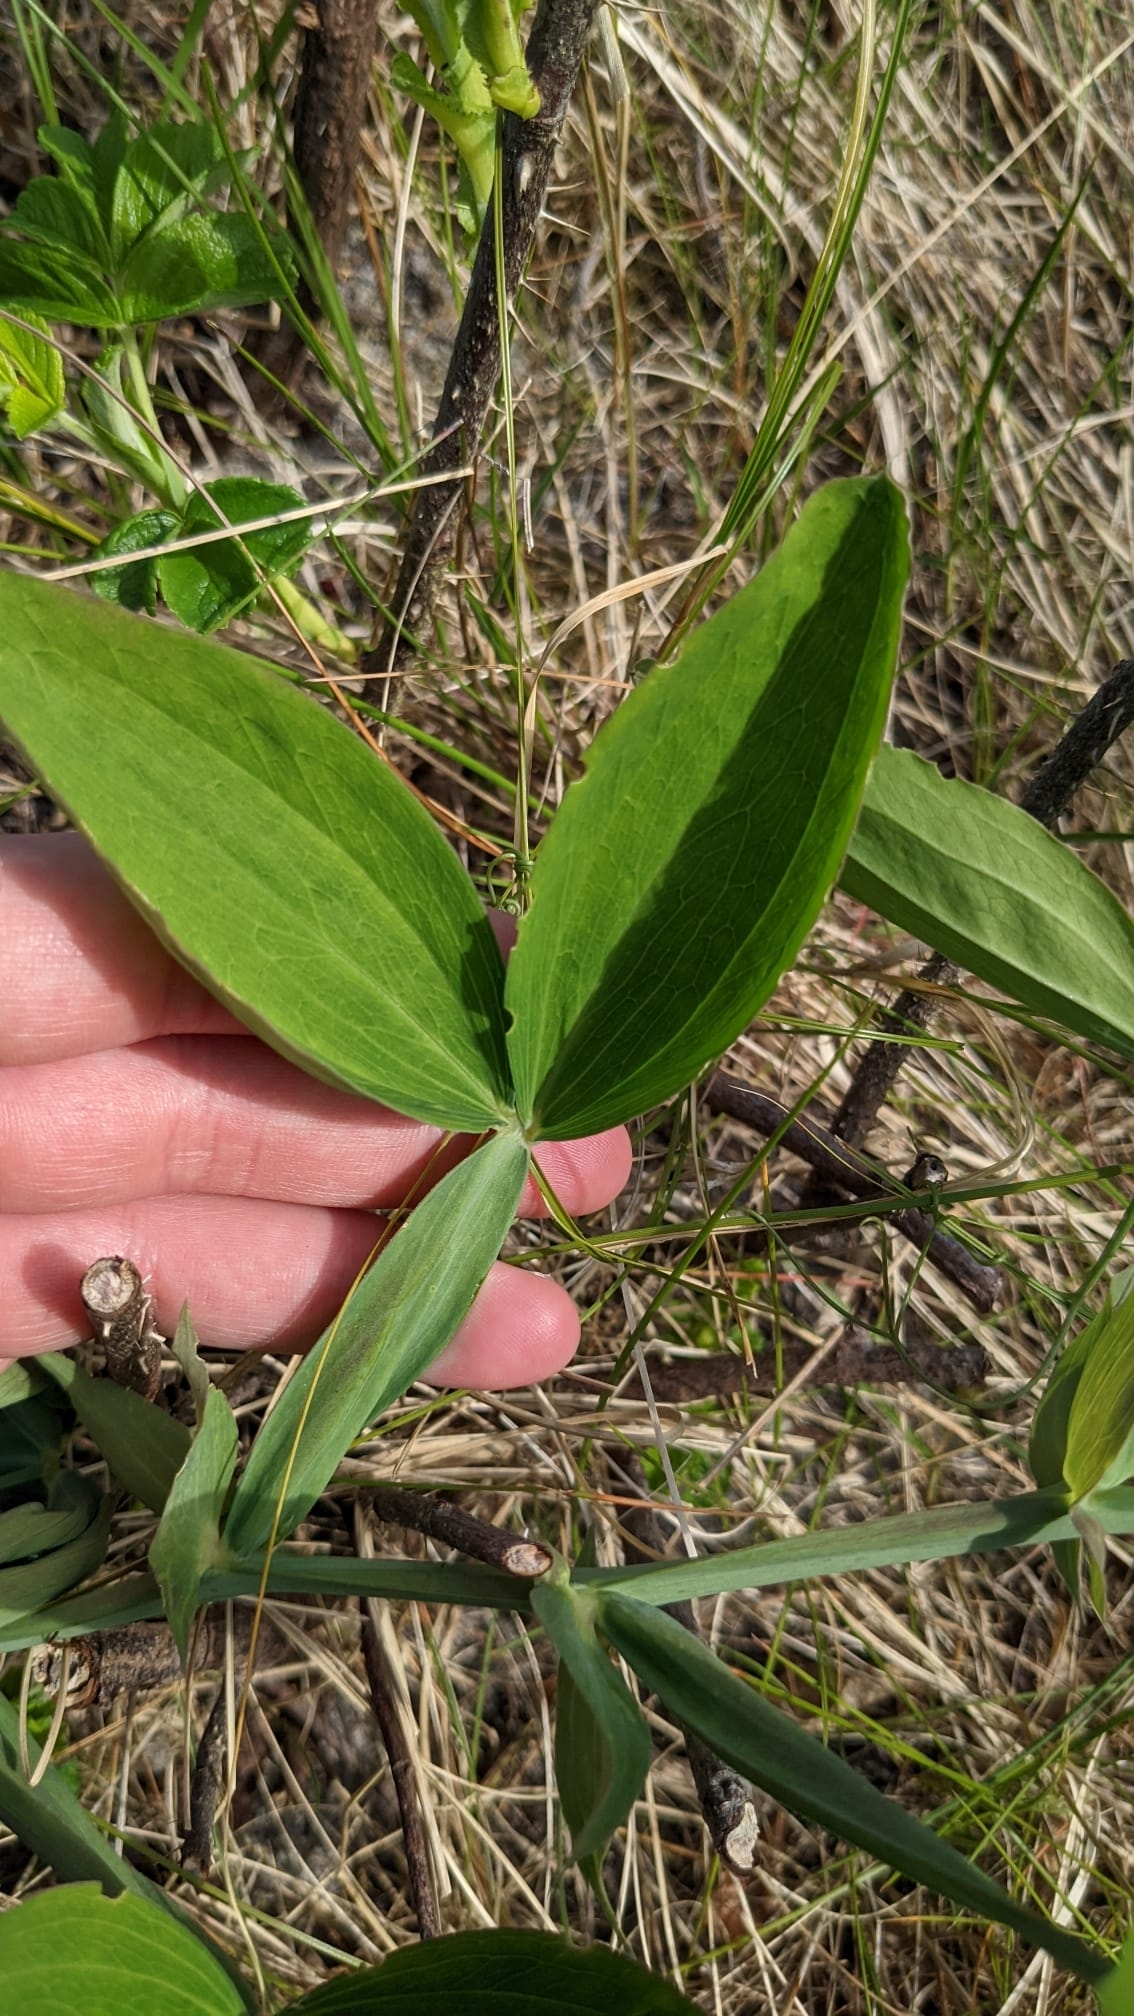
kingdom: Plantae
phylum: Tracheophyta
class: Magnoliopsida
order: Fabales
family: Fabaceae
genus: Lathyrus
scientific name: Lathyrus latifolius
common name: Perennial pea
